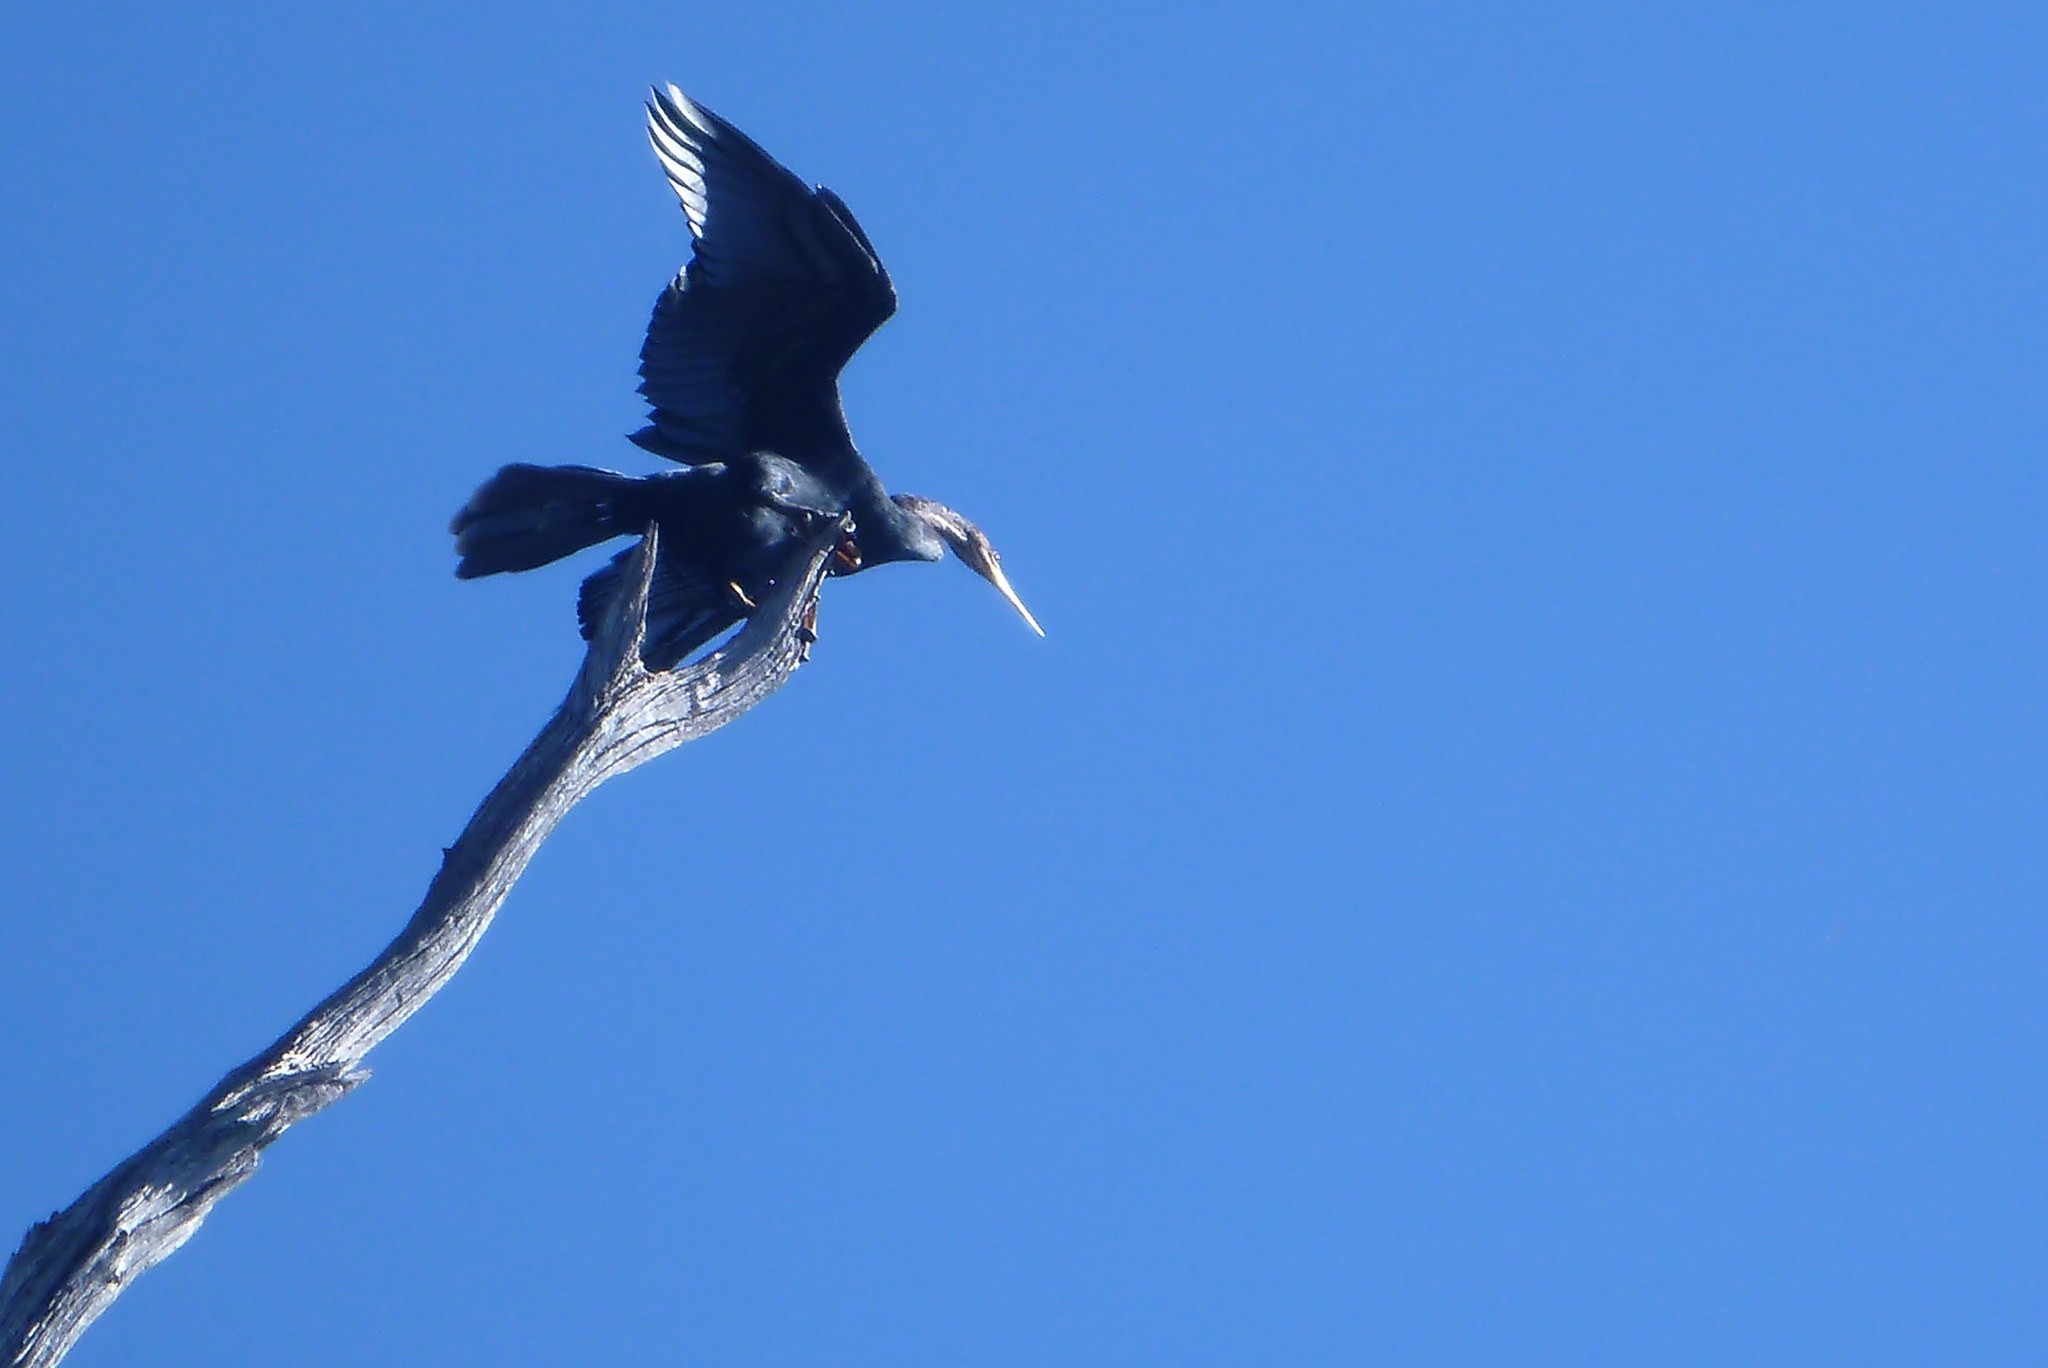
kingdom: Animalia
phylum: Chordata
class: Aves
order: Suliformes
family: Anhingidae
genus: Anhinga
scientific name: Anhinga anhinga
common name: Anhinga
